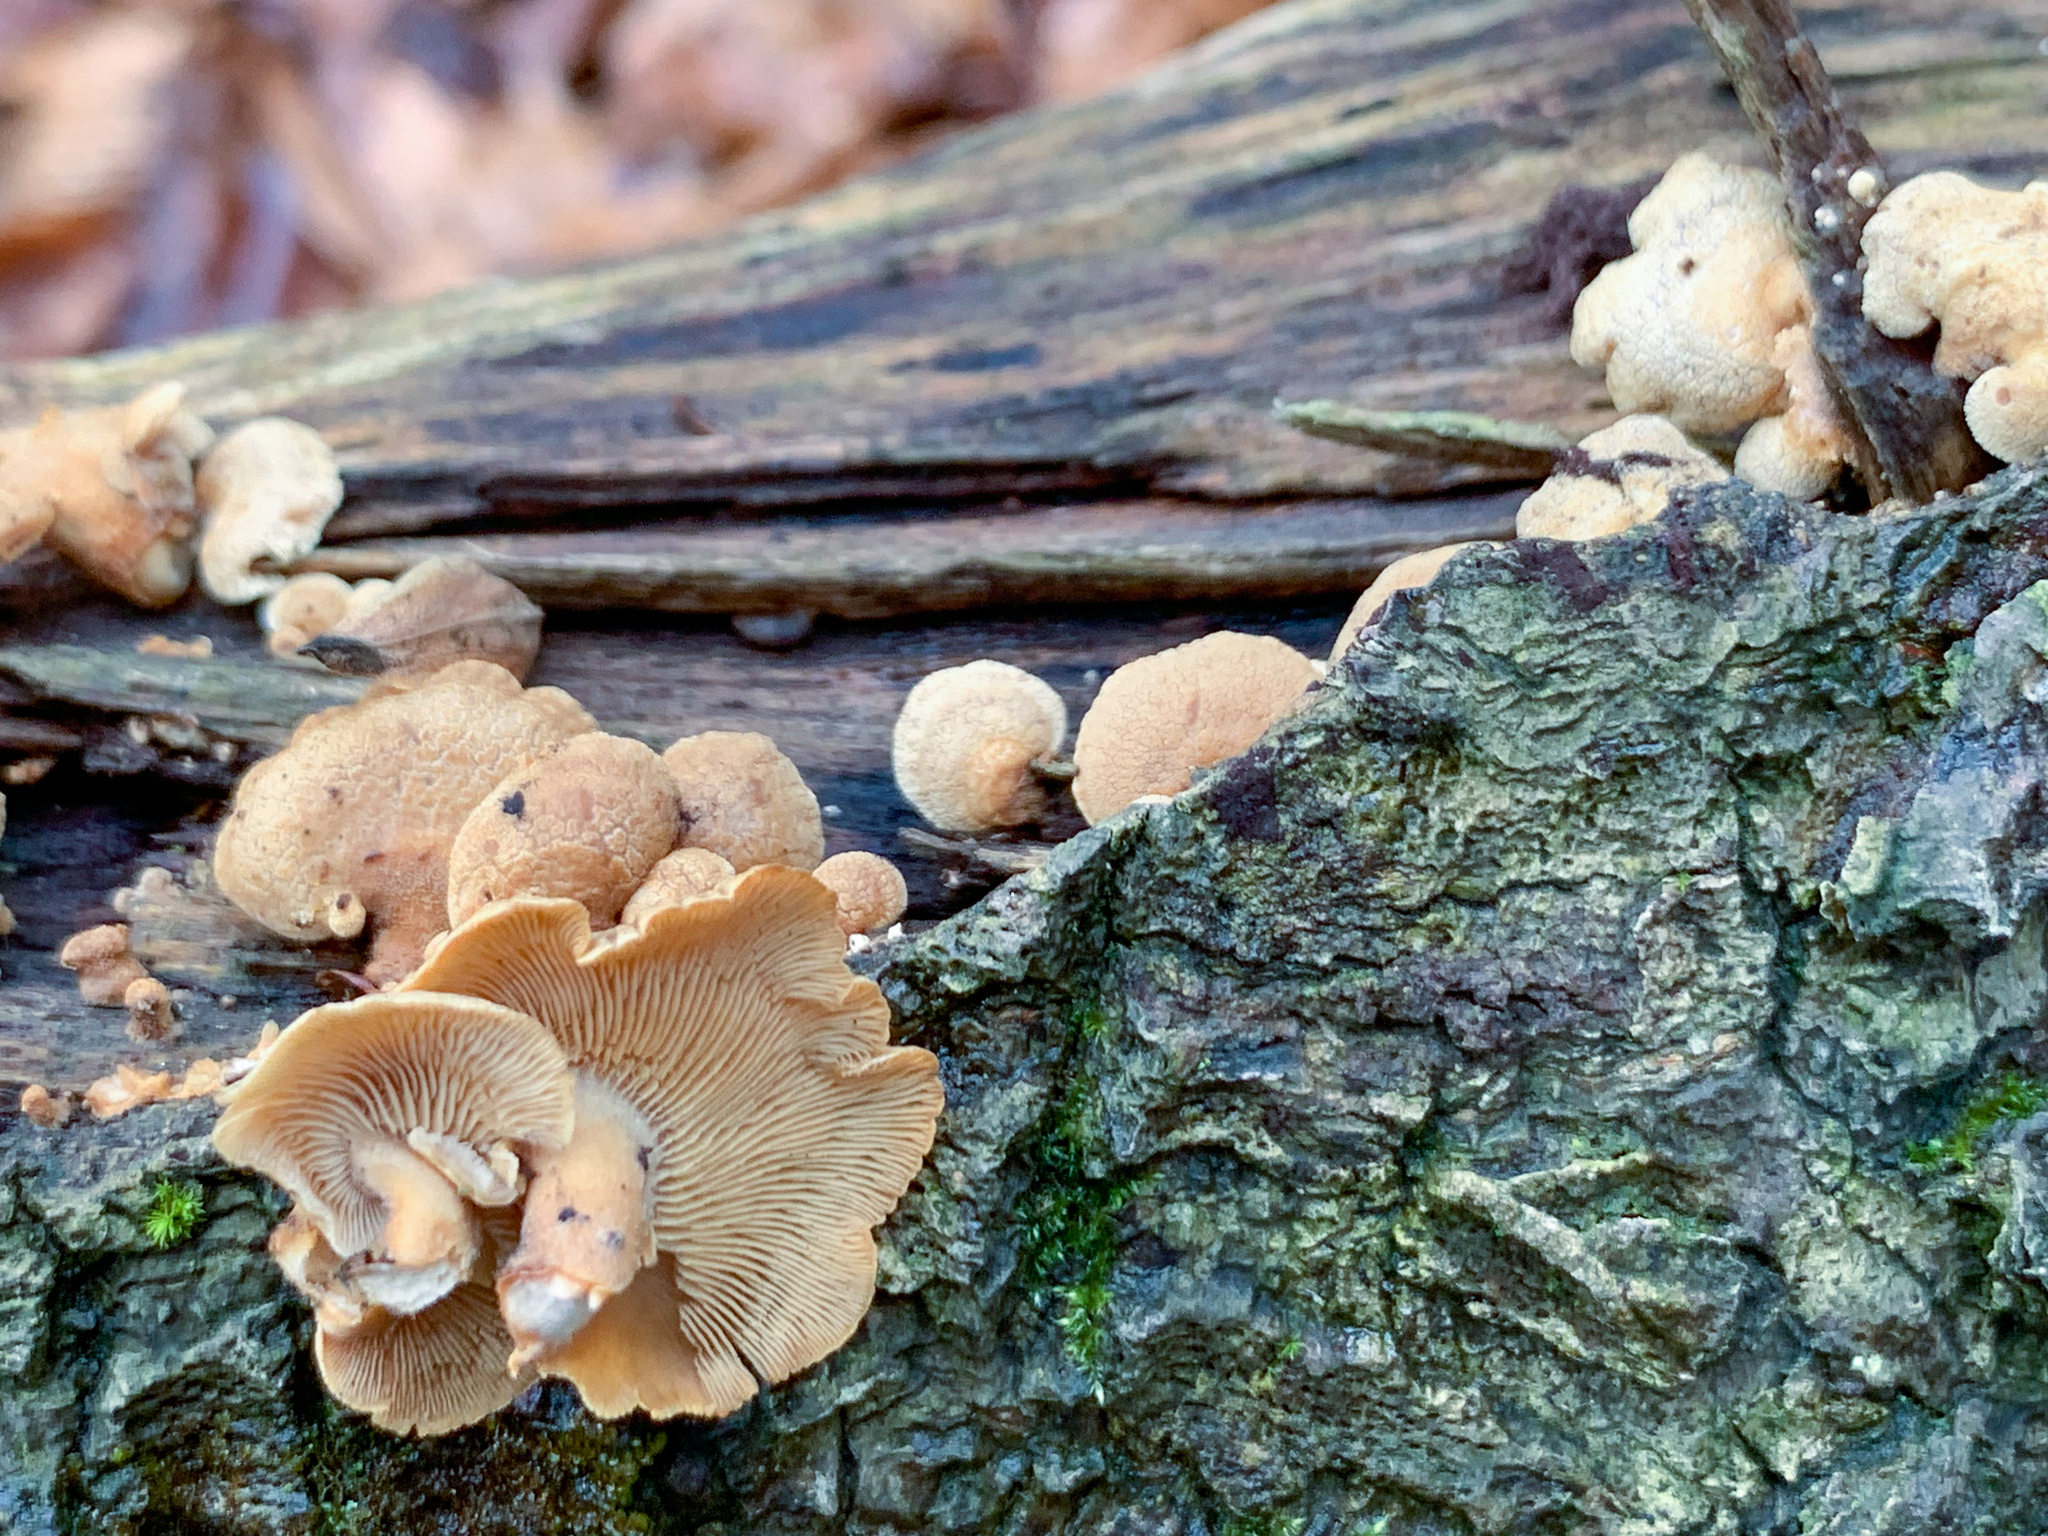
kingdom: Fungi
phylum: Basidiomycota
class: Agaricomycetes
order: Agaricales
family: Mycenaceae
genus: Panellus
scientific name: Panellus stipticus
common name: Bitter oysterling
